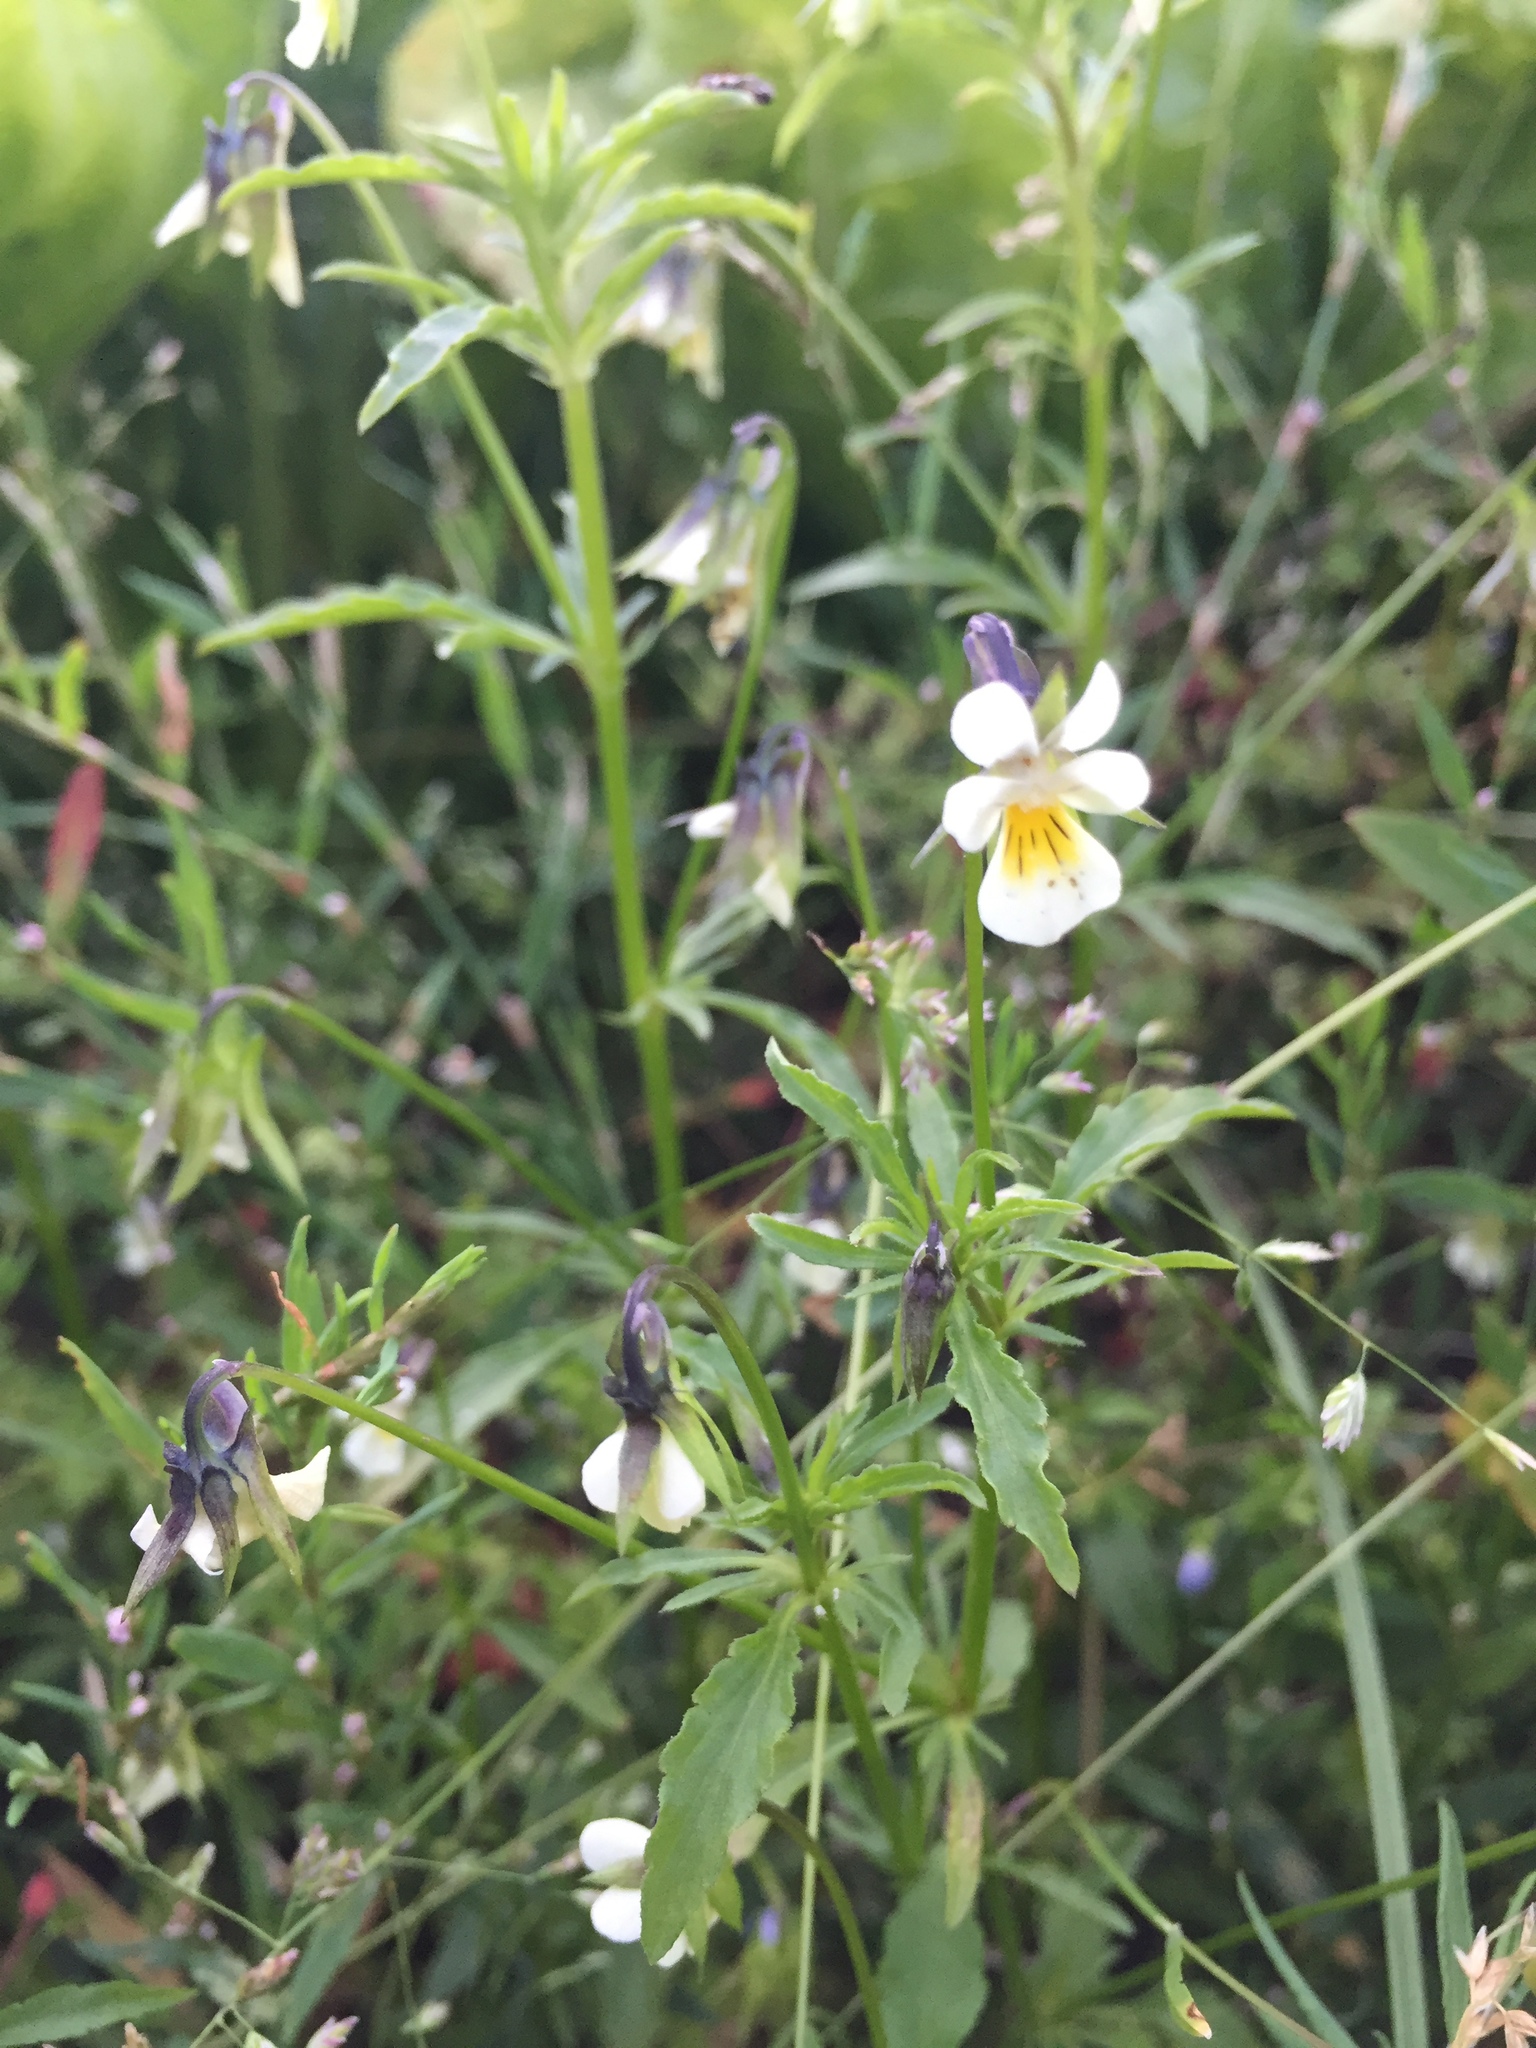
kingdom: Plantae
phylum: Tracheophyta
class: Magnoliopsida
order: Malpighiales
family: Violaceae
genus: Viola
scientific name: Viola arvensis
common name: Field pansy
